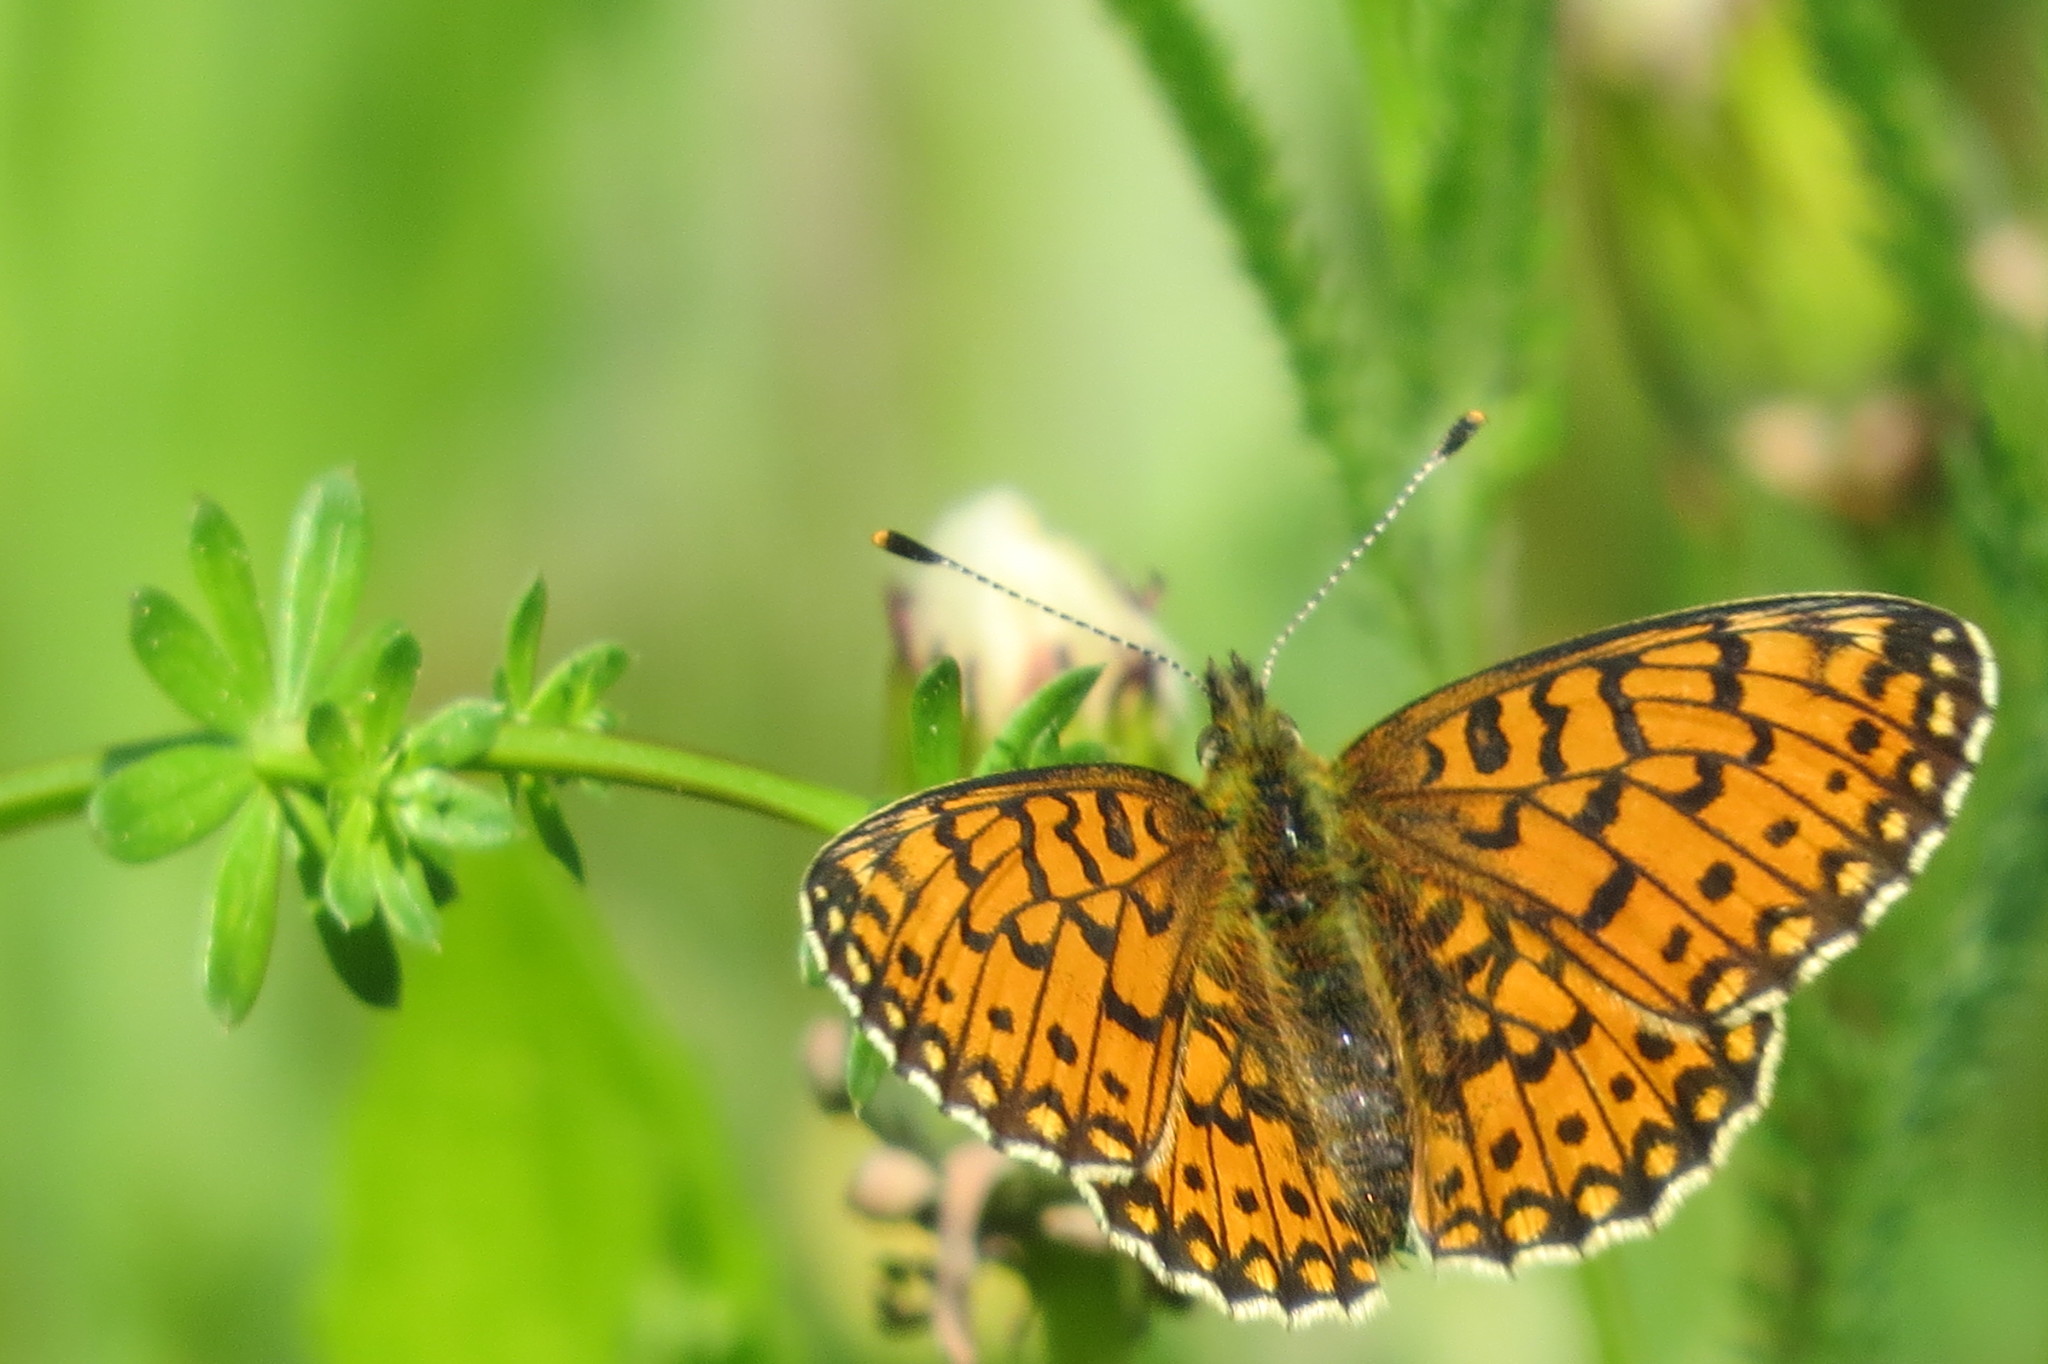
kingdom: Animalia
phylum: Arthropoda
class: Insecta
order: Lepidoptera
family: Nymphalidae
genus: Boloria
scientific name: Boloria selene
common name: Small pearl-bordered fritillary
